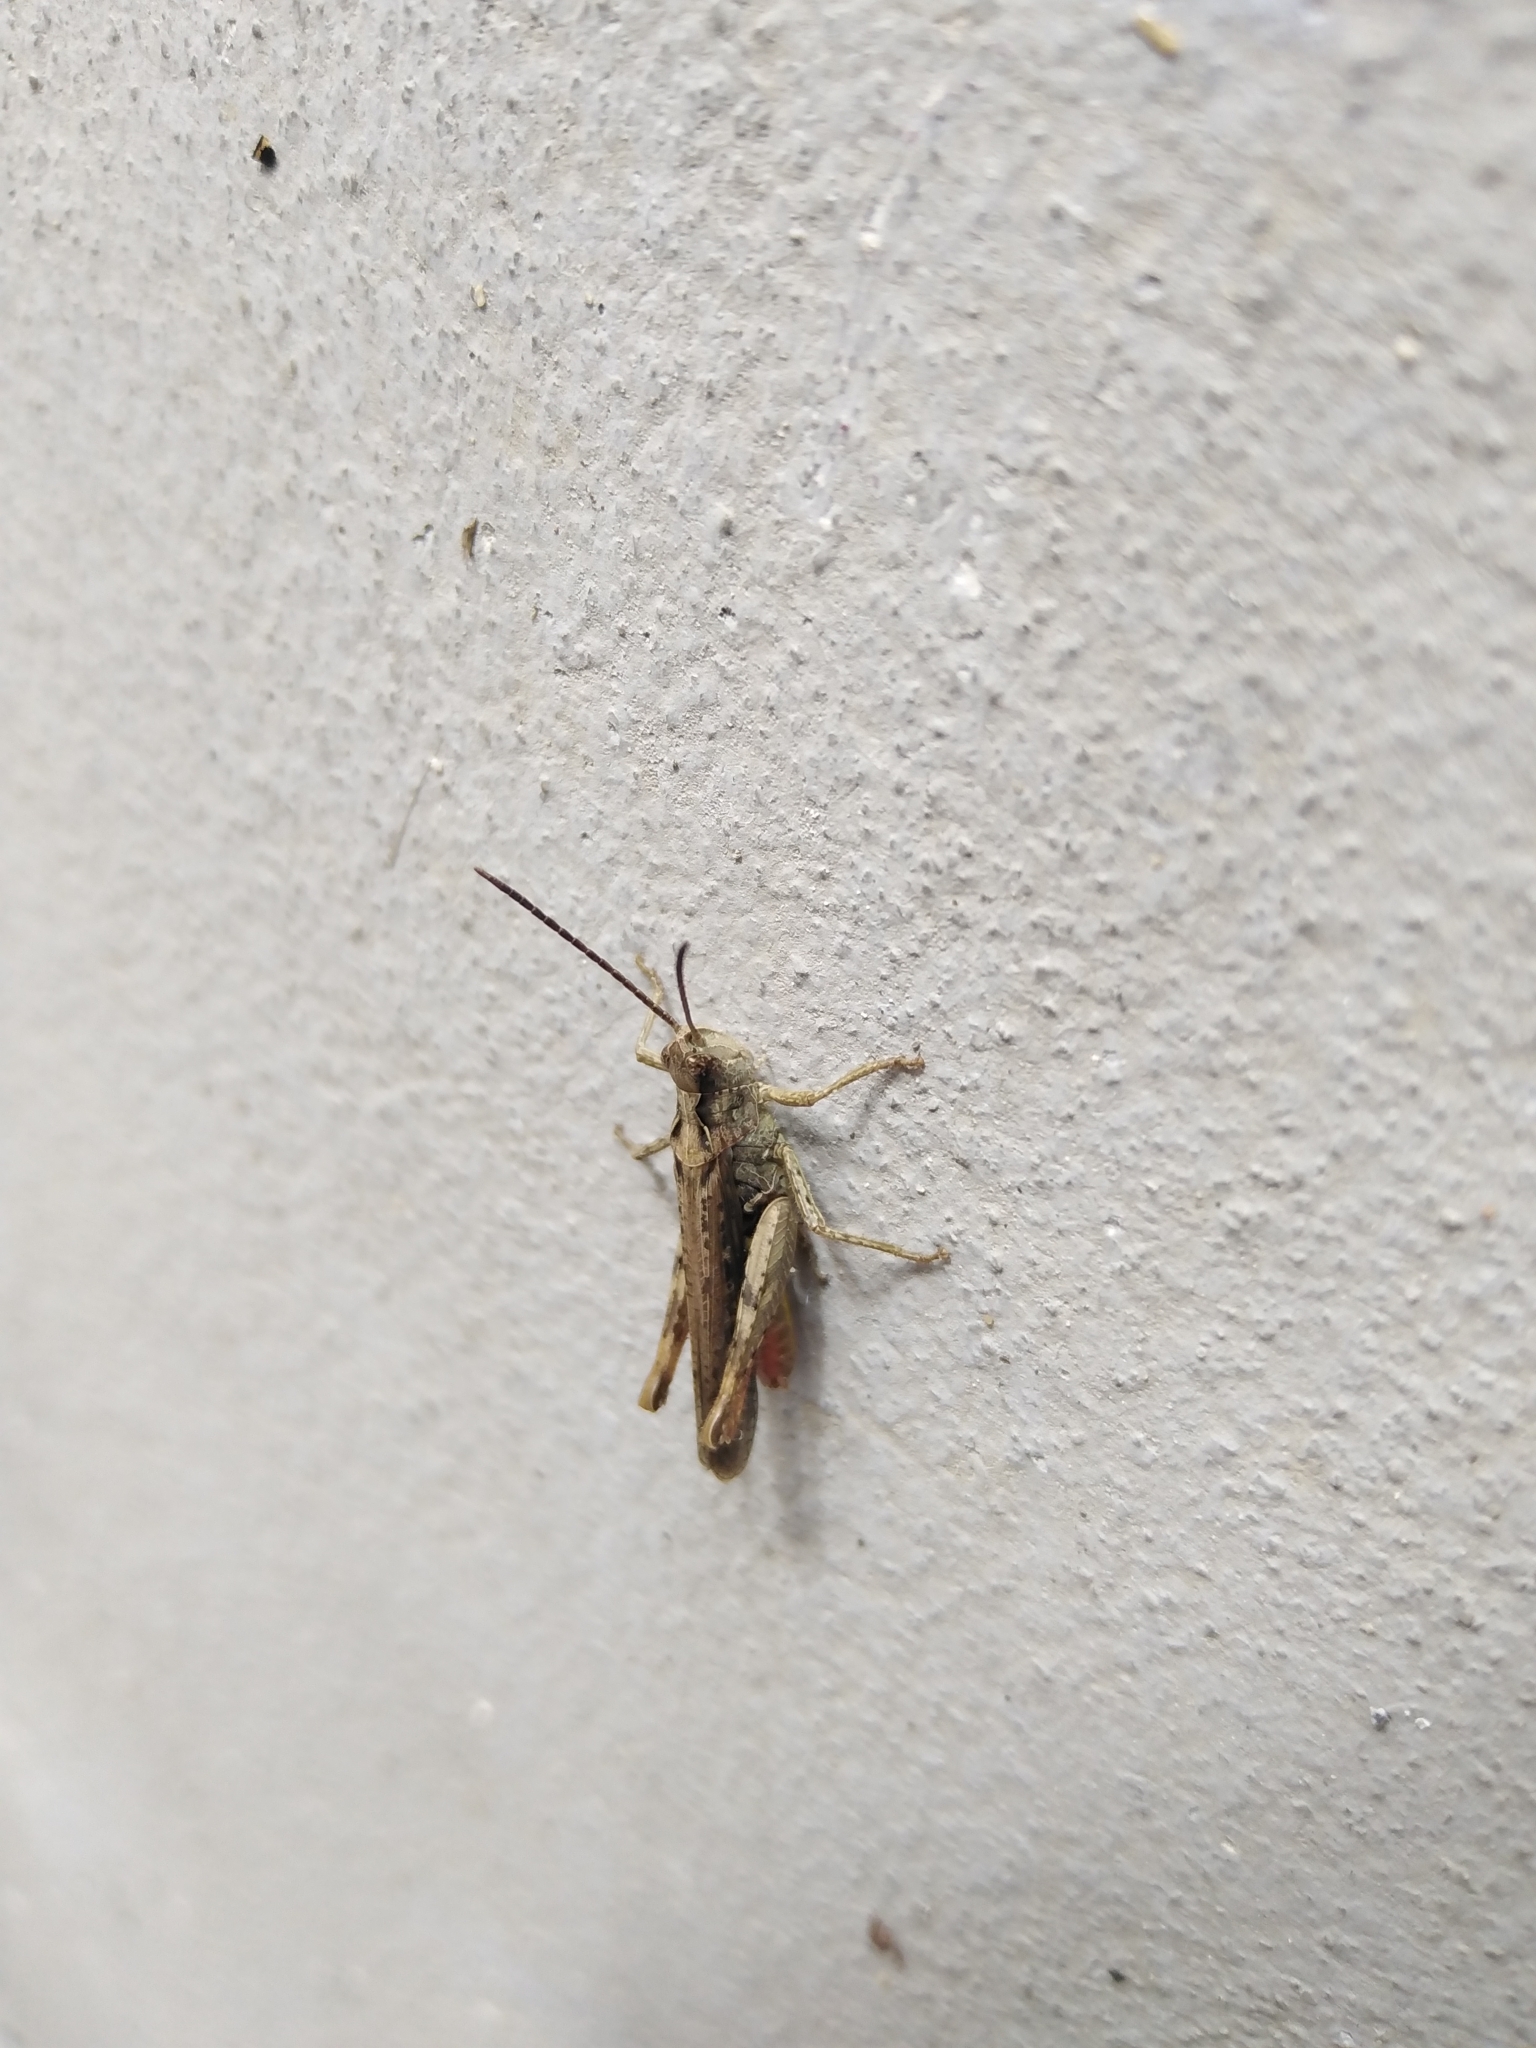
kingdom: Animalia
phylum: Arthropoda
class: Insecta
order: Orthoptera
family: Acrididae
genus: Chorthippus
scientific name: Chorthippus brunneus
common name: Field grasshopper
